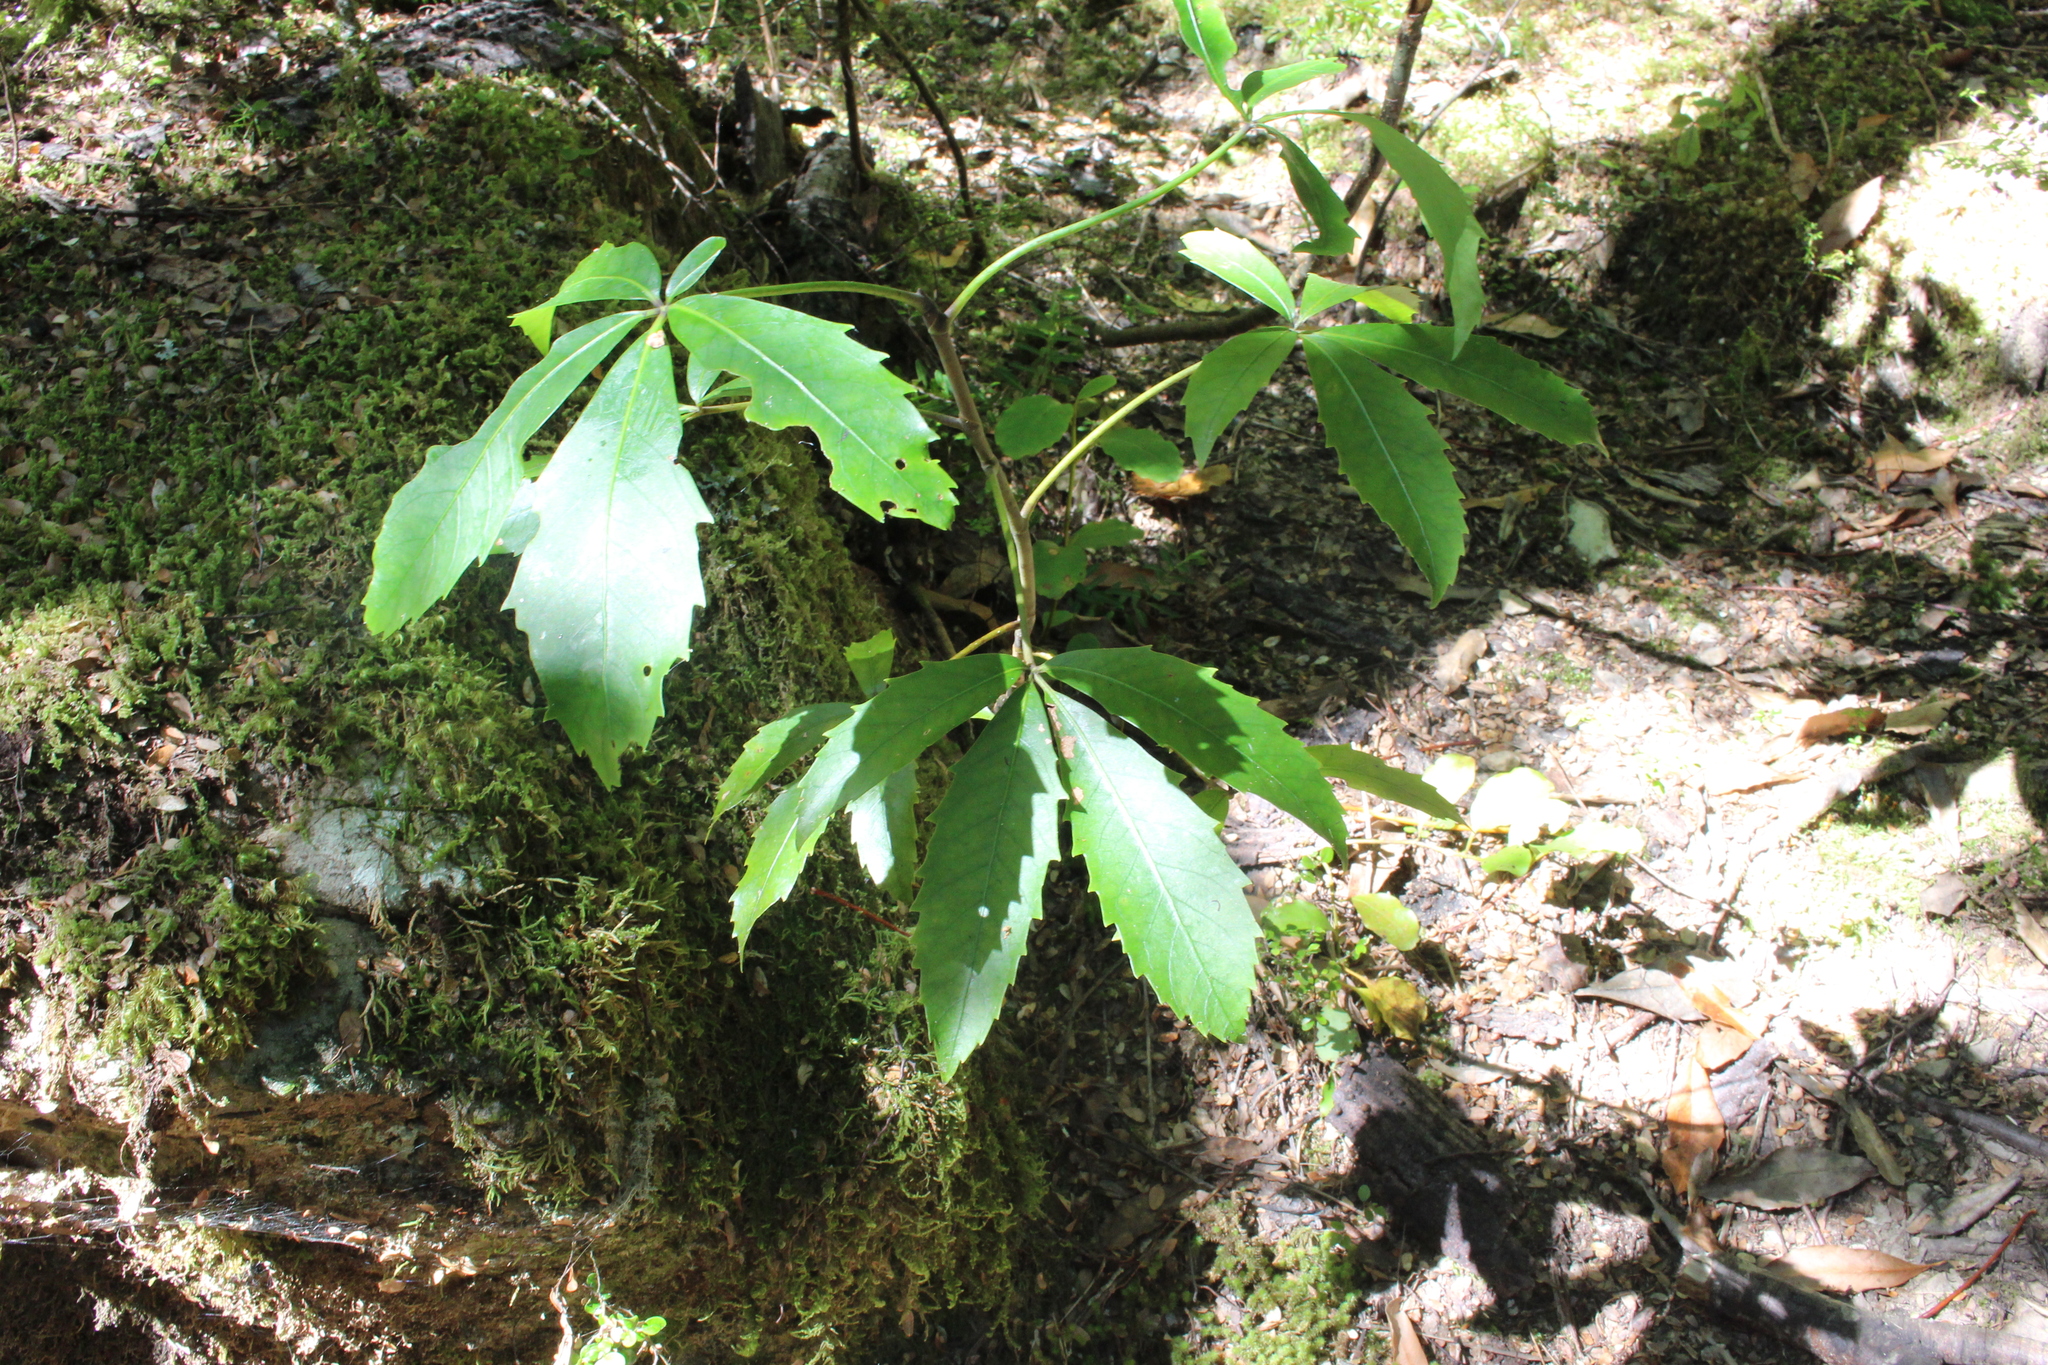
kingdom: Plantae
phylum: Tracheophyta
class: Magnoliopsida
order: Apiales
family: Araliaceae
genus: Neopanax
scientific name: Neopanax colensoi
